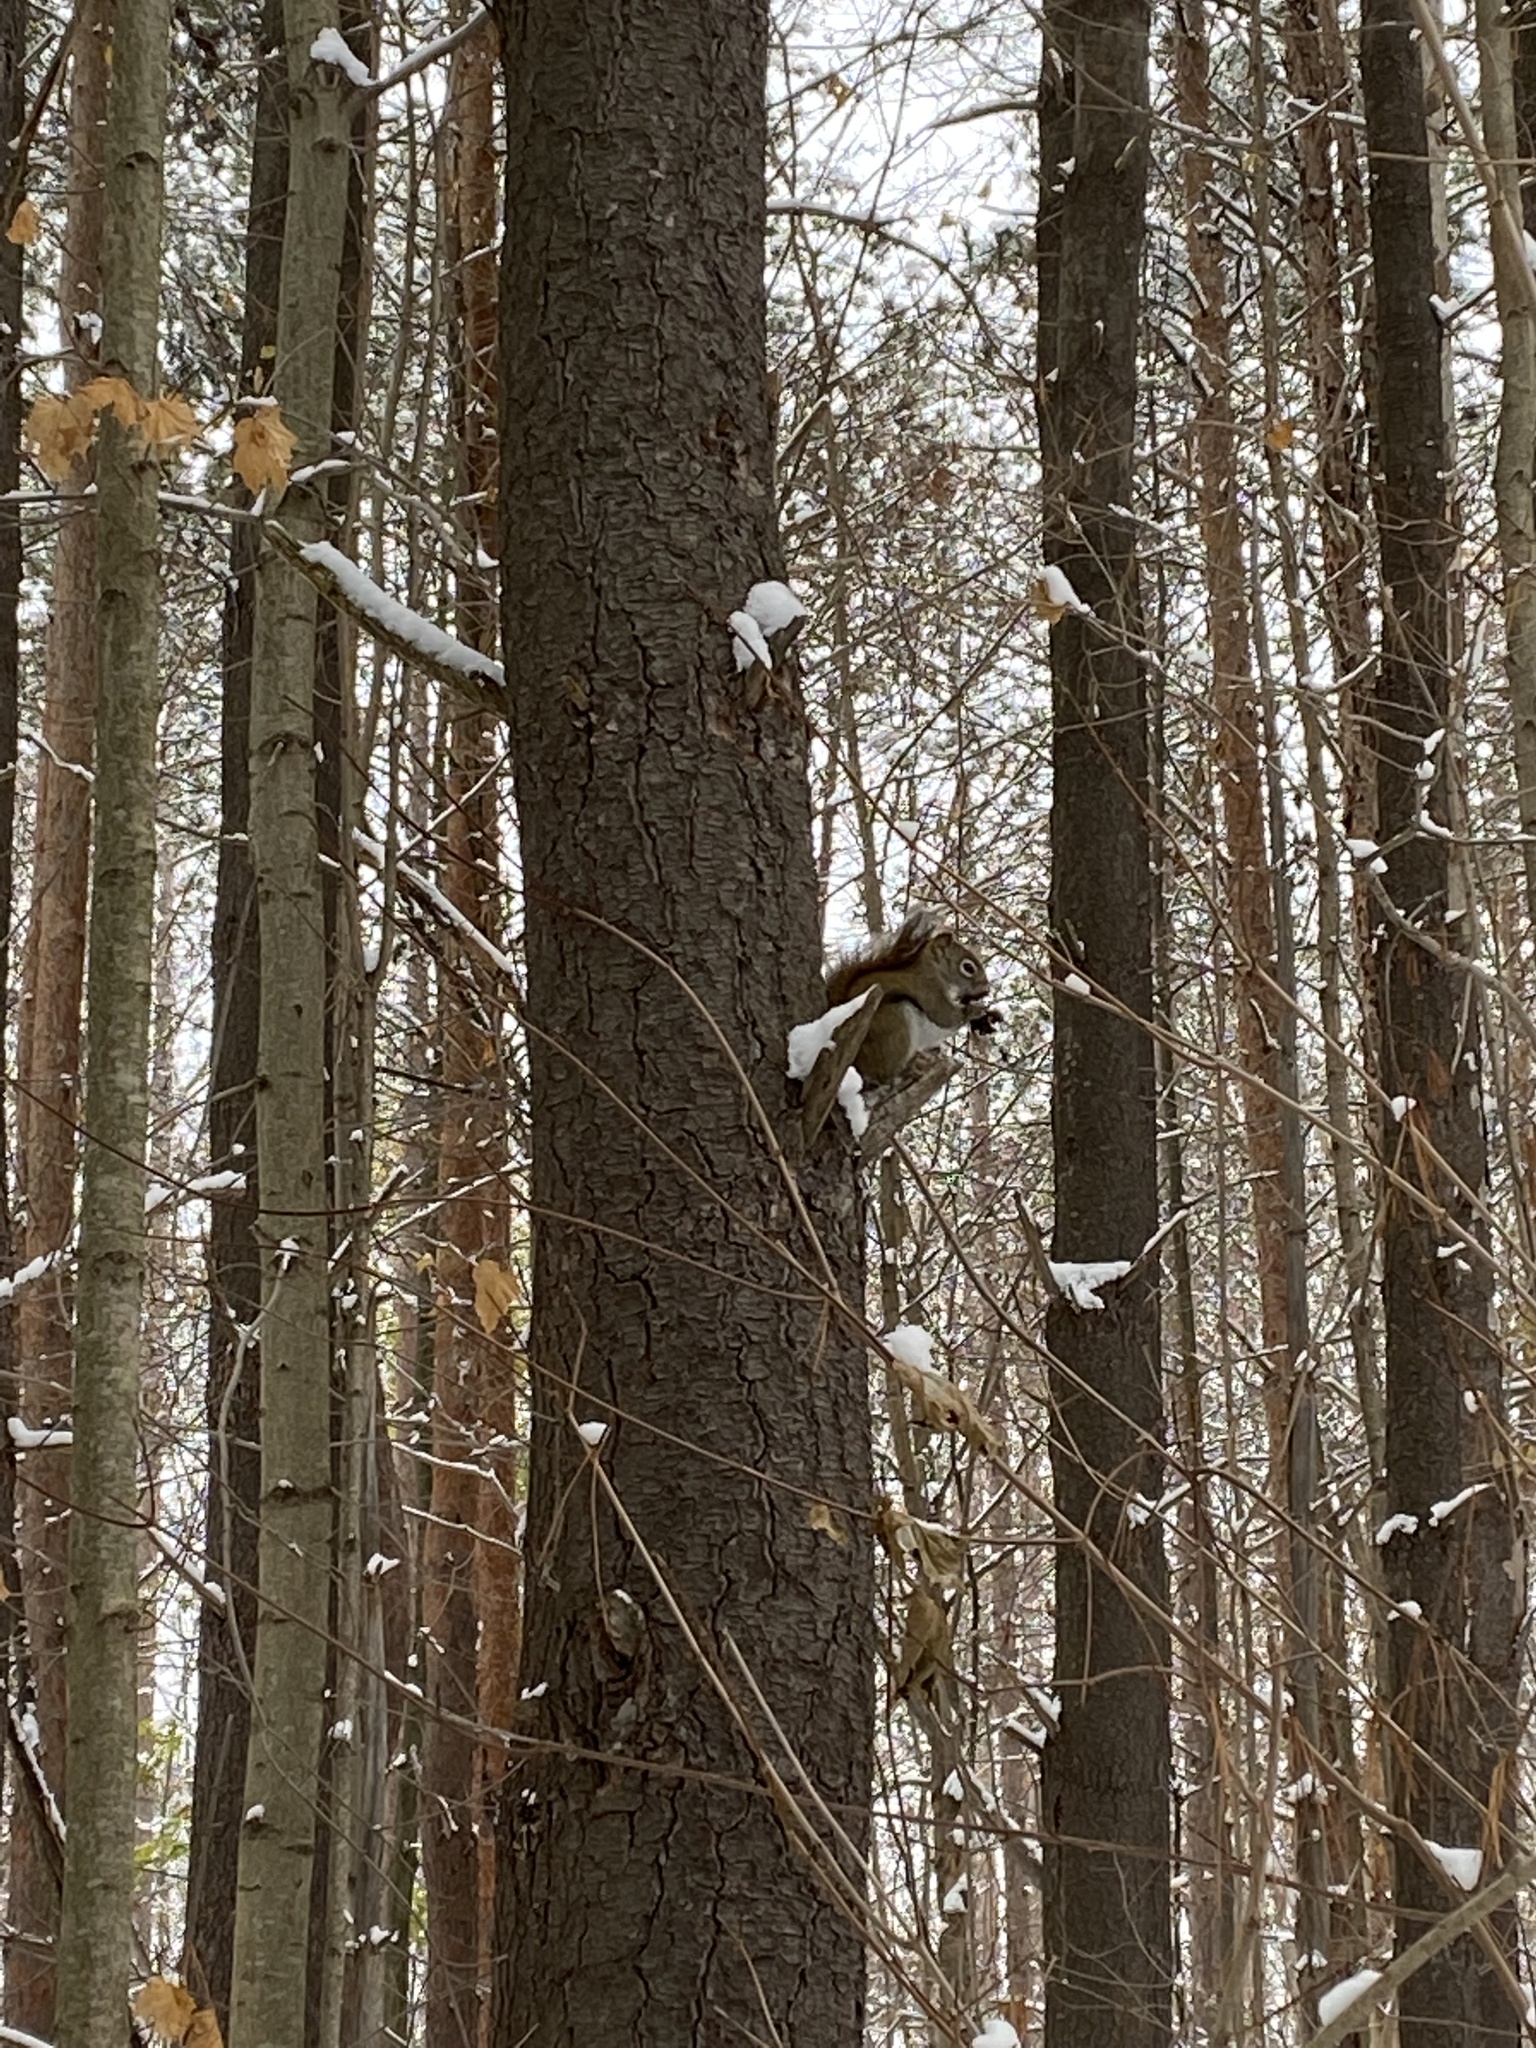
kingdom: Animalia
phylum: Chordata
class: Mammalia
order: Rodentia
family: Sciuridae
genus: Tamiasciurus
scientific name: Tamiasciurus hudsonicus
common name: Red squirrel
